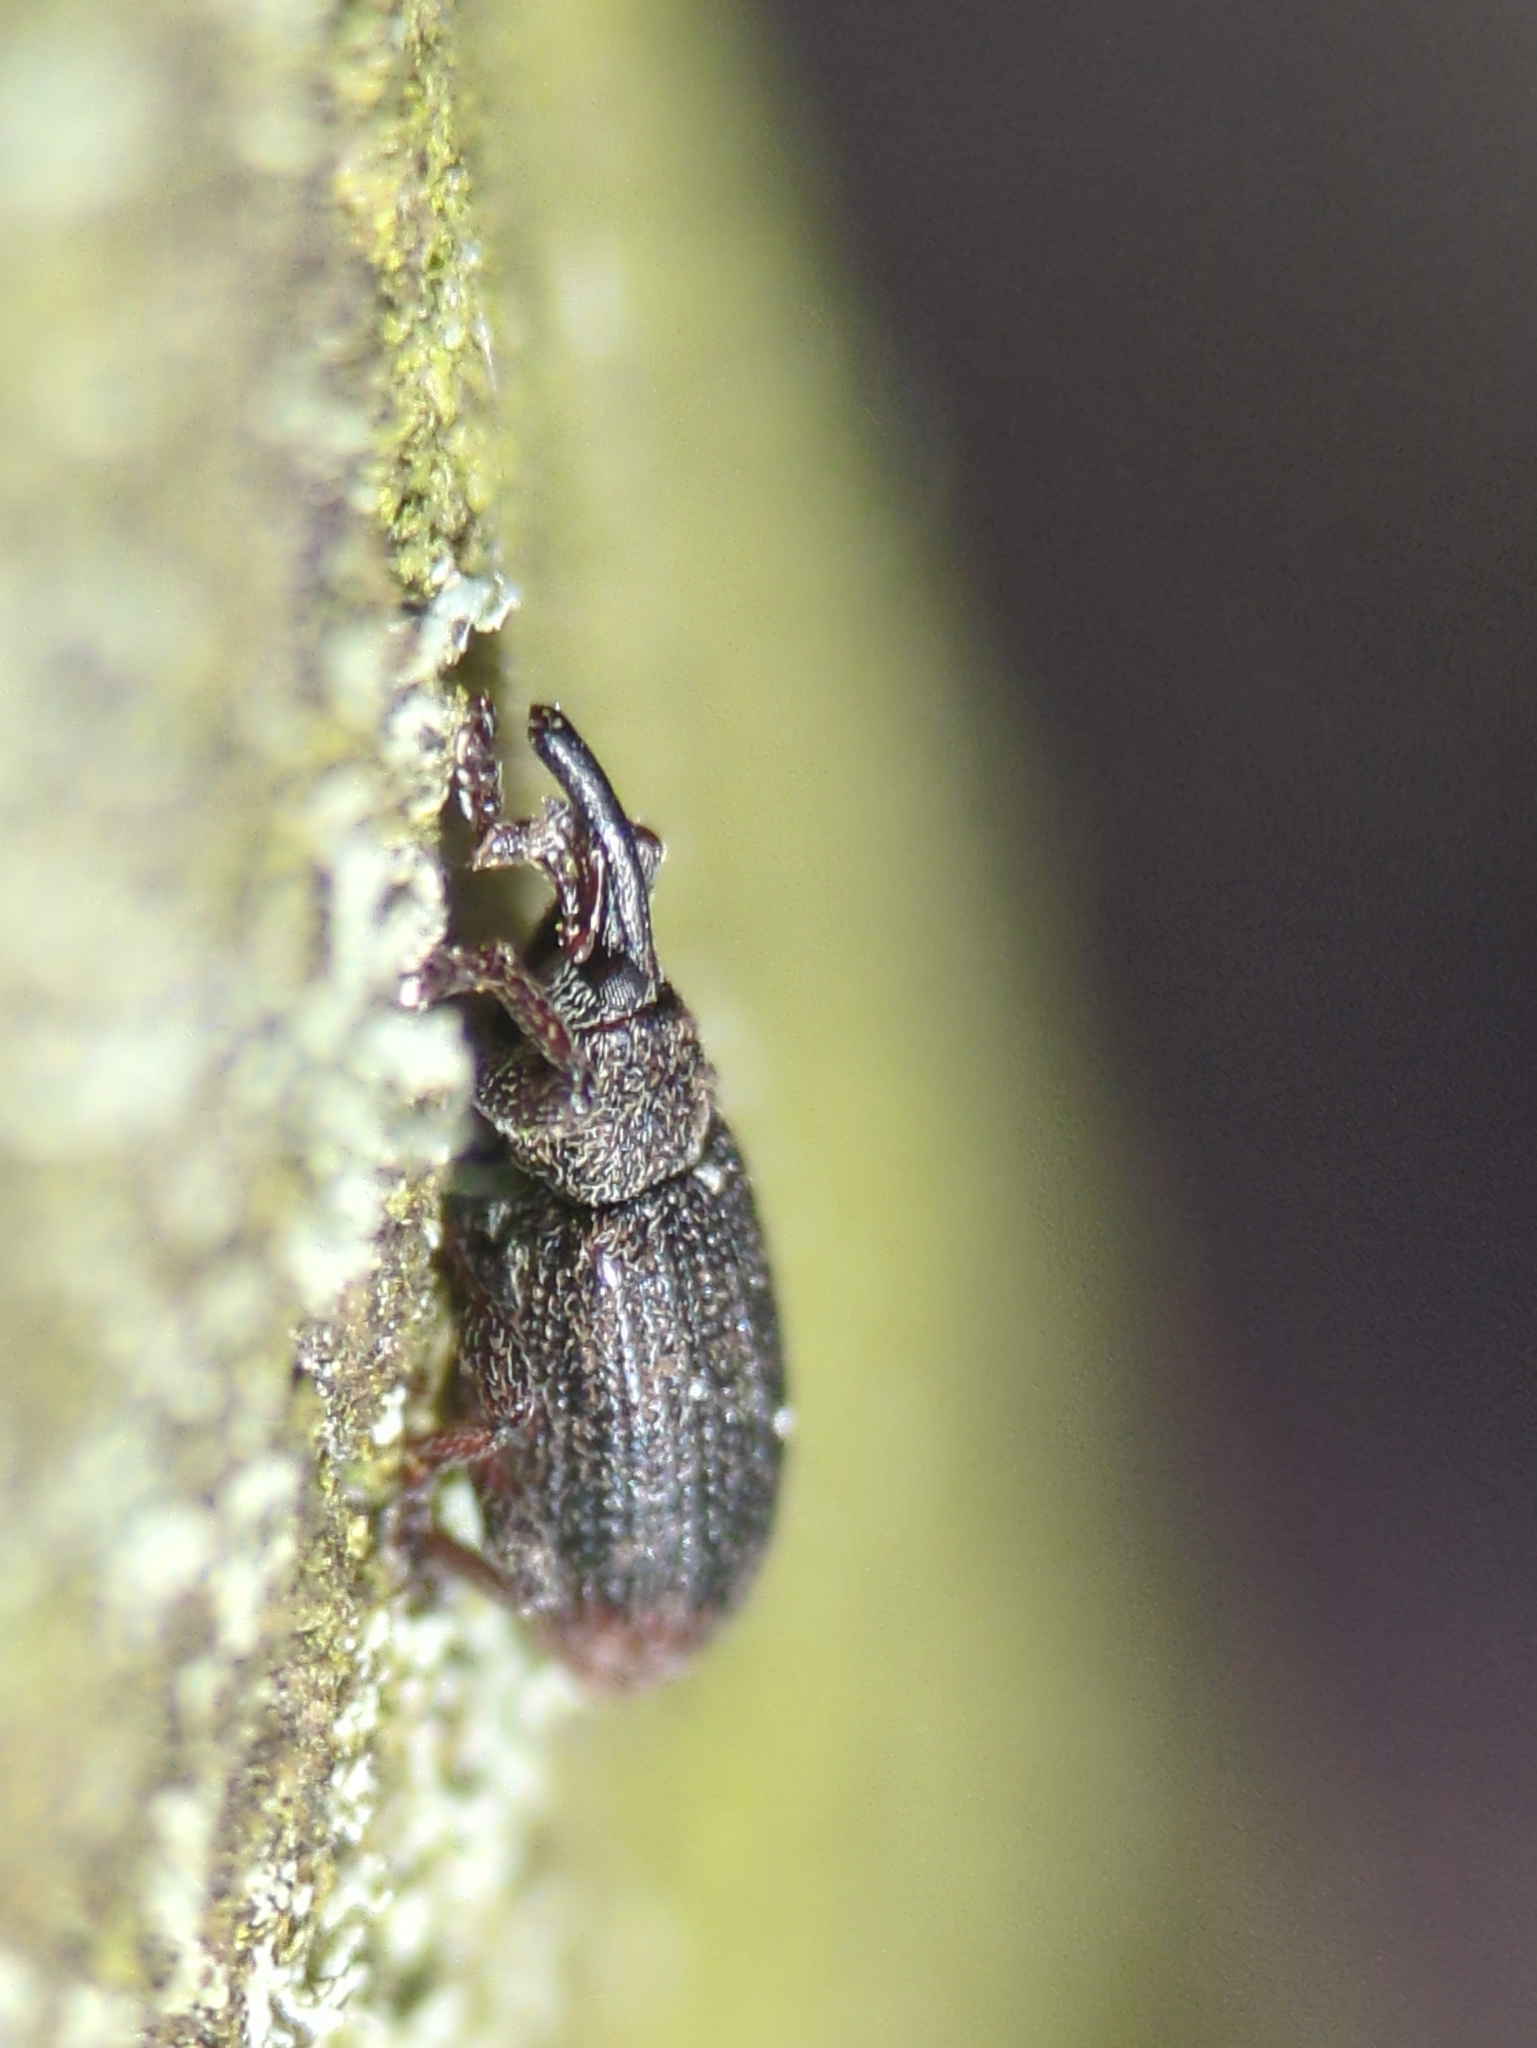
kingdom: Animalia
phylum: Arthropoda
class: Insecta
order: Coleoptera
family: Curculionidae
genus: Bradybatus
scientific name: Bradybatus kellneri
